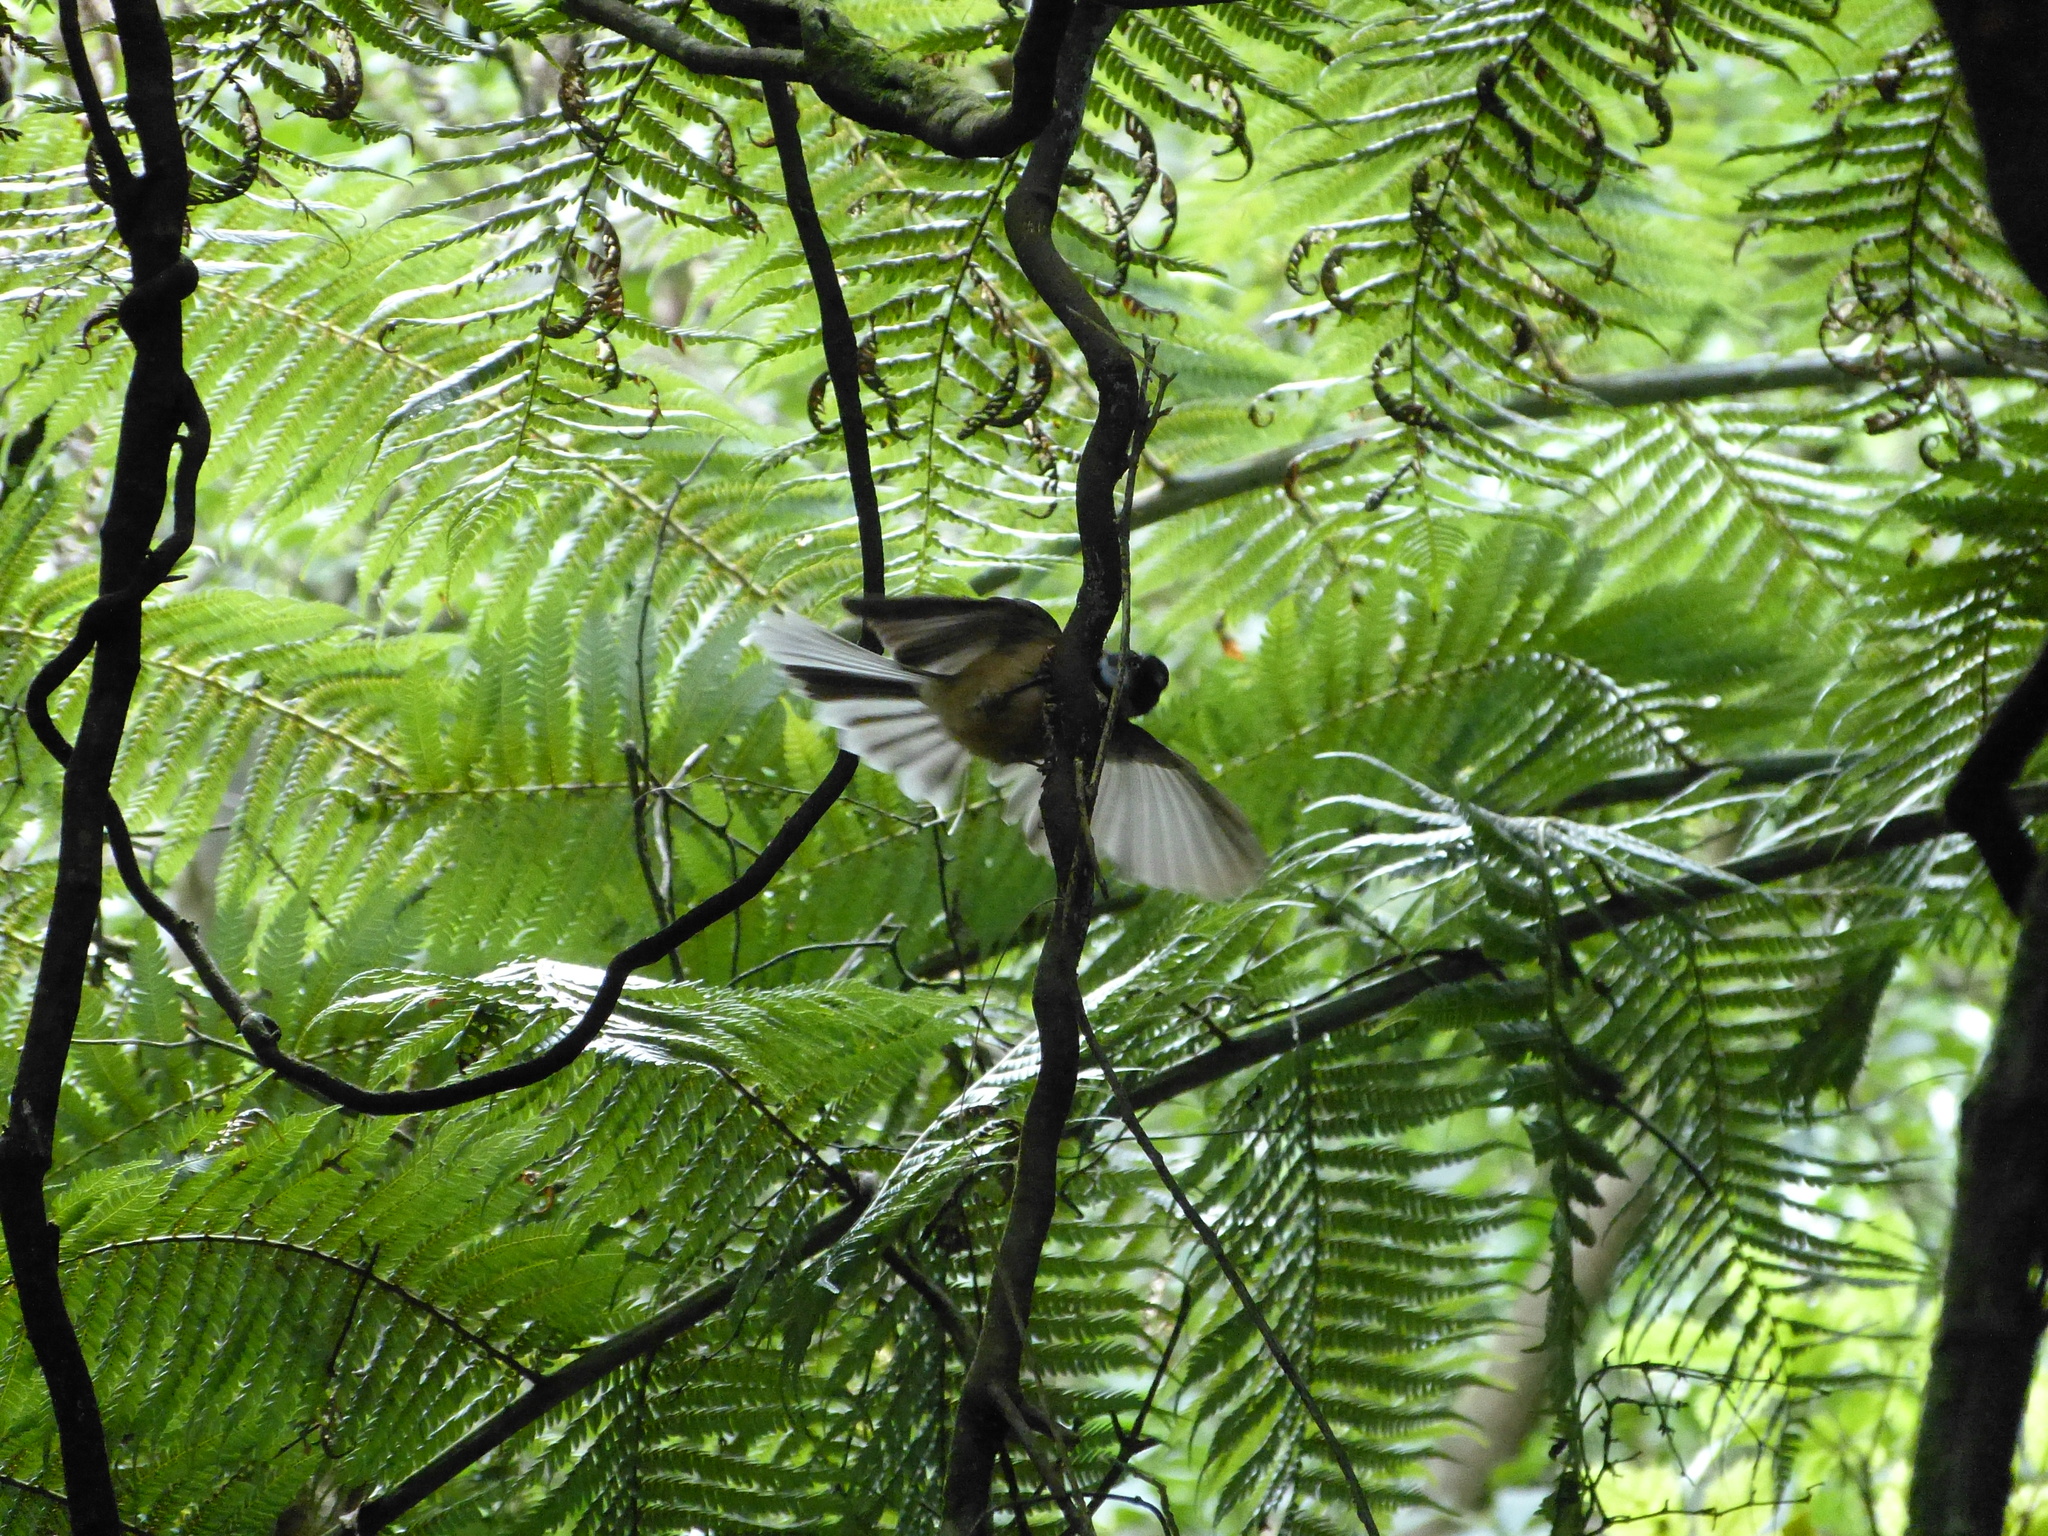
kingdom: Animalia
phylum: Chordata
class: Aves
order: Passeriformes
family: Rhipiduridae
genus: Rhipidura
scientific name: Rhipidura fuliginosa
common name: New zealand fantail
